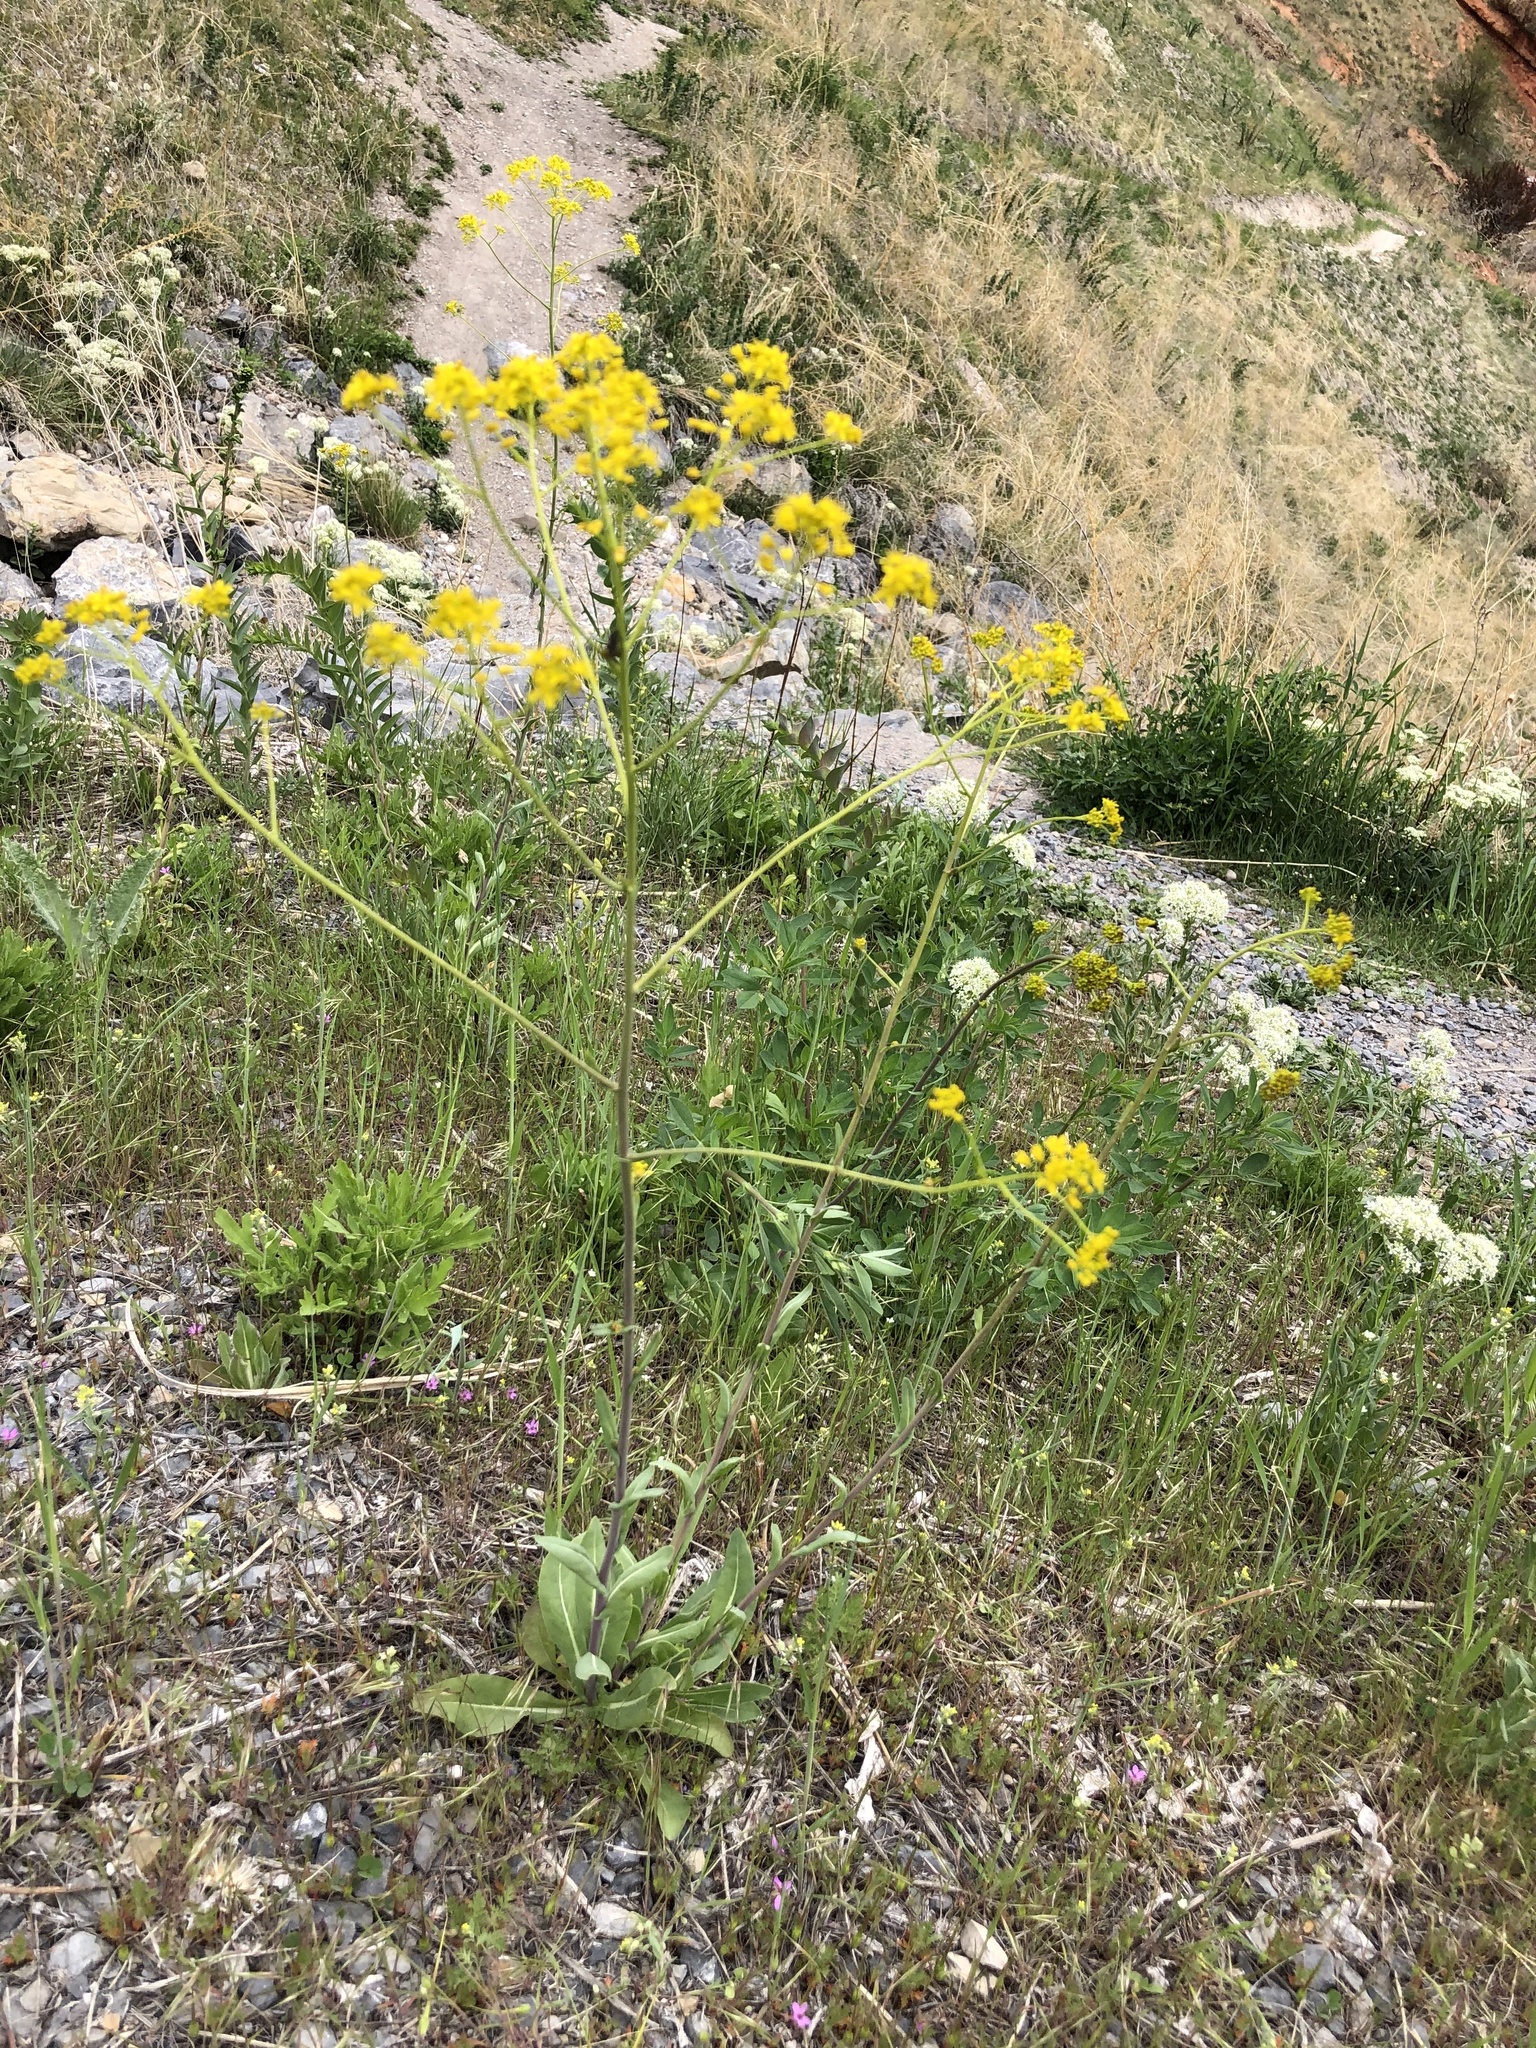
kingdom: Plantae
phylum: Tracheophyta
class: Magnoliopsida
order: Brassicales
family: Brassicaceae
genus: Isatis
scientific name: Isatis tinctoria
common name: Woad
